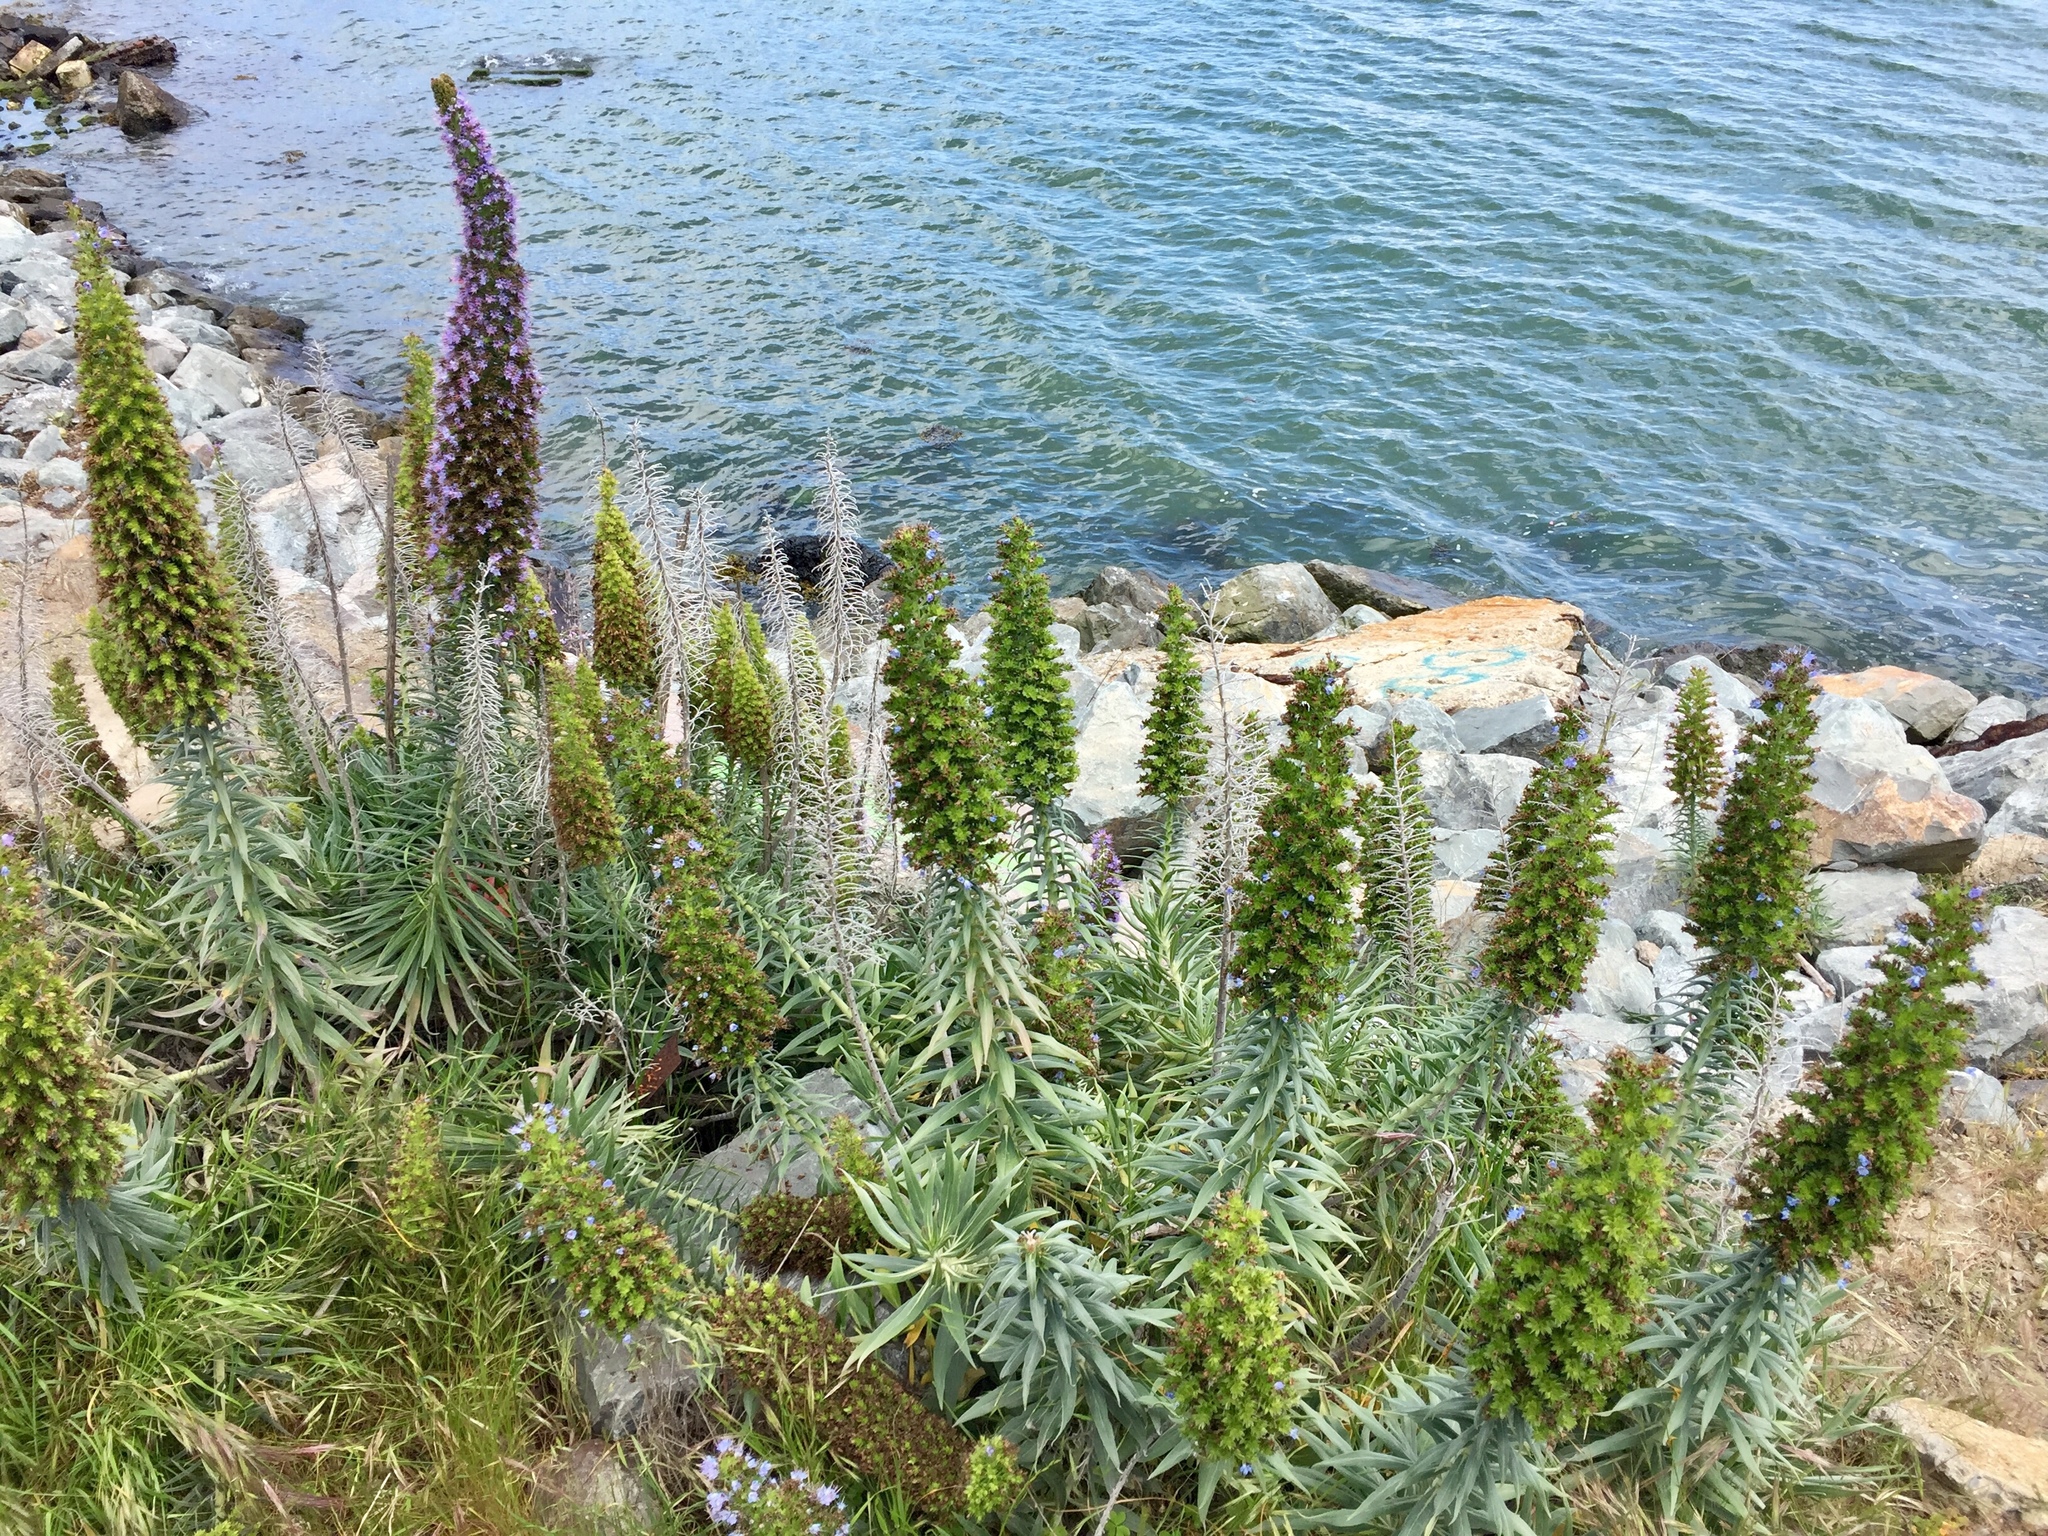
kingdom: Plantae
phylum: Tracheophyta
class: Magnoliopsida
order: Boraginales
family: Boraginaceae
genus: Echium
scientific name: Echium candicans
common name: Pride of madeira
